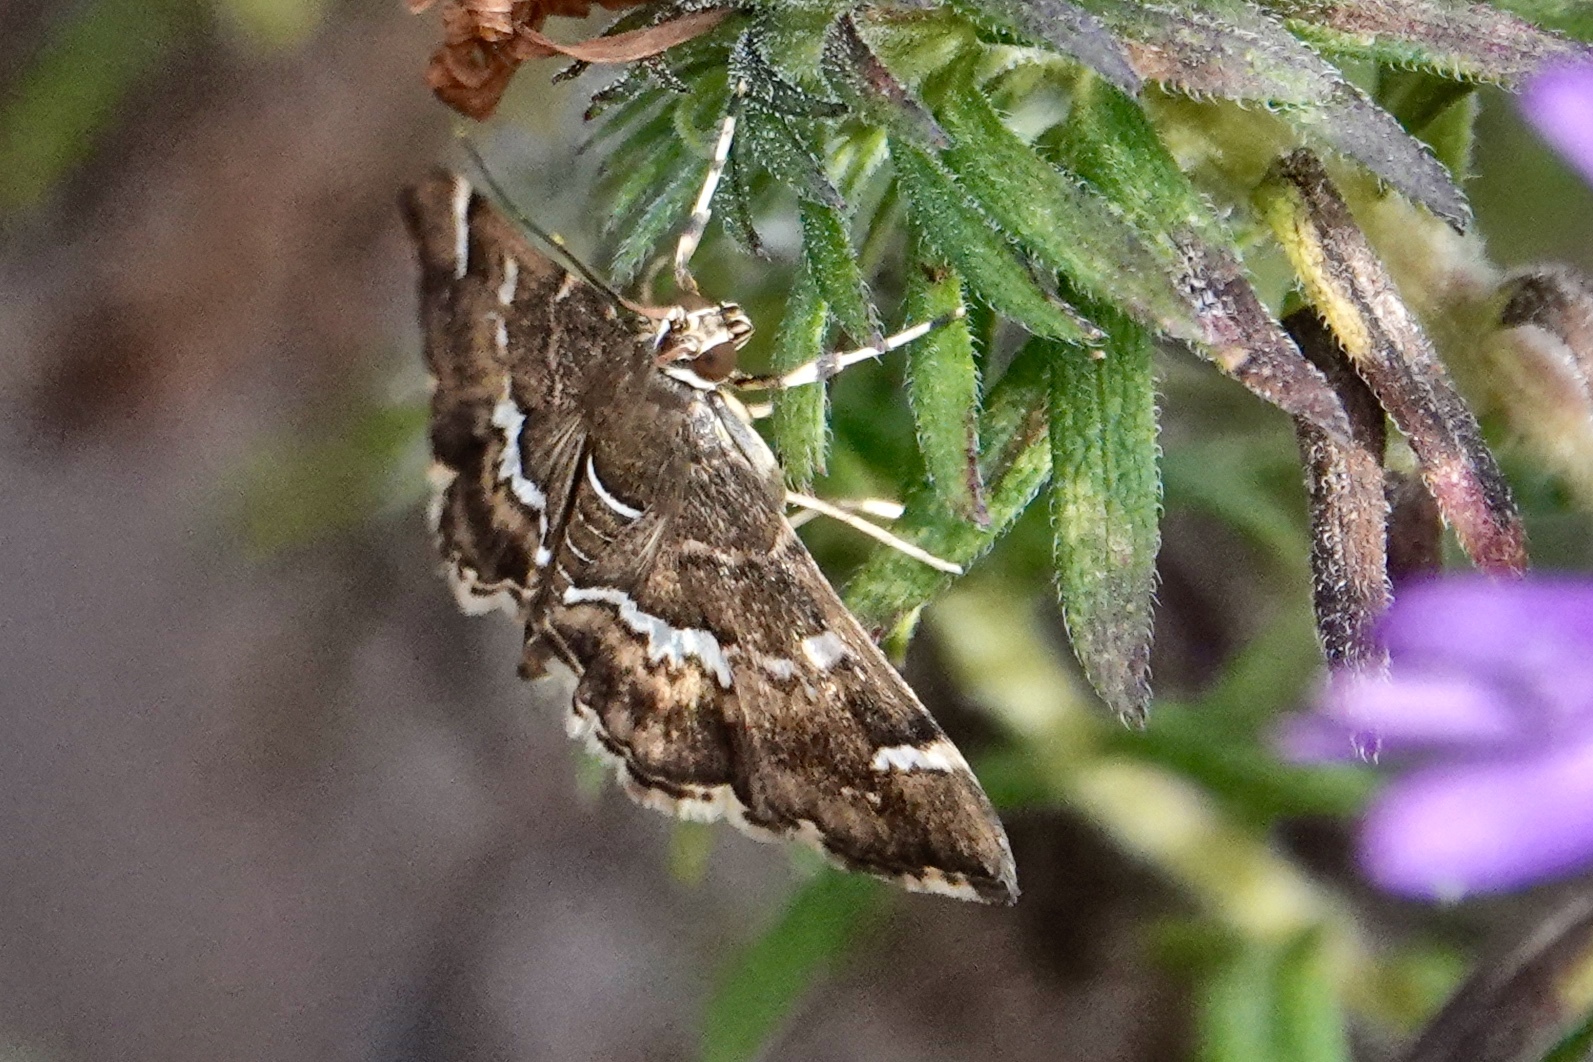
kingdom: Animalia
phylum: Arthropoda
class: Insecta
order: Lepidoptera
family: Crambidae
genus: Hymenia
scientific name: Hymenia perspectalis
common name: Spotted beet webworm
